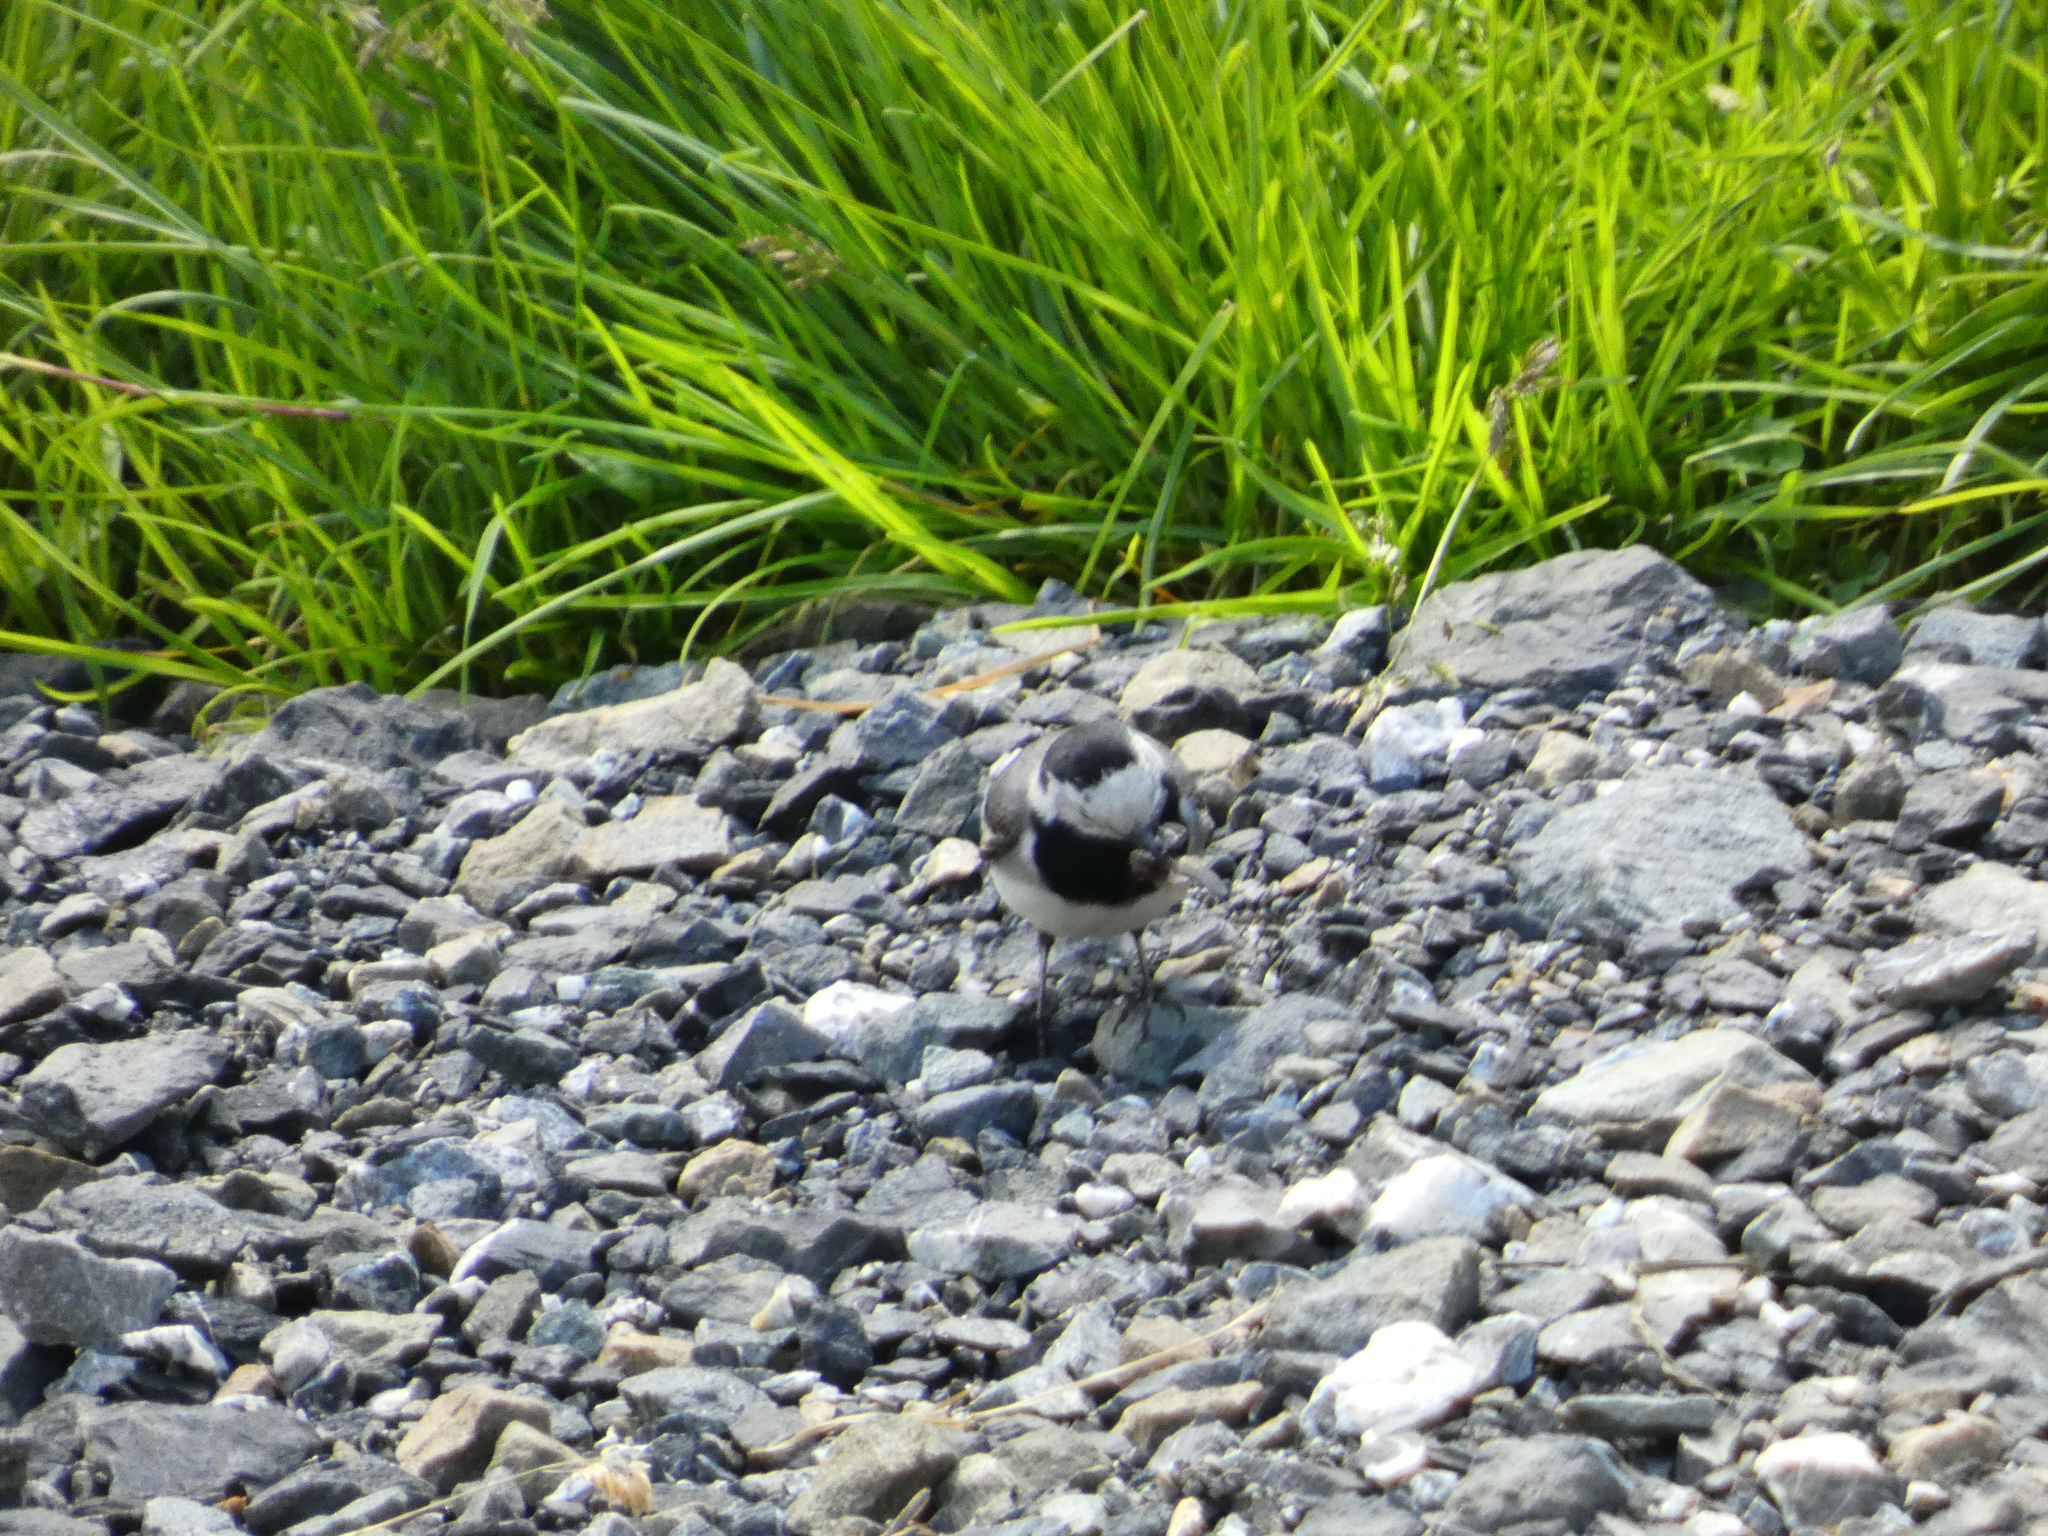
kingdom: Animalia
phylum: Chordata
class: Aves
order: Passeriformes
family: Motacillidae
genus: Motacilla
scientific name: Motacilla alba
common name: White wagtail
